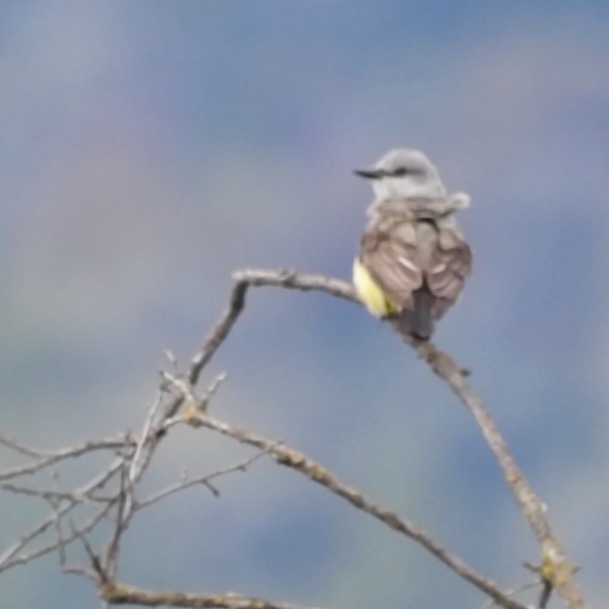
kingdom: Animalia
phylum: Chordata
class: Aves
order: Passeriformes
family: Tyrannidae
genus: Tyrannus
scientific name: Tyrannus verticalis
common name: Western kingbird
